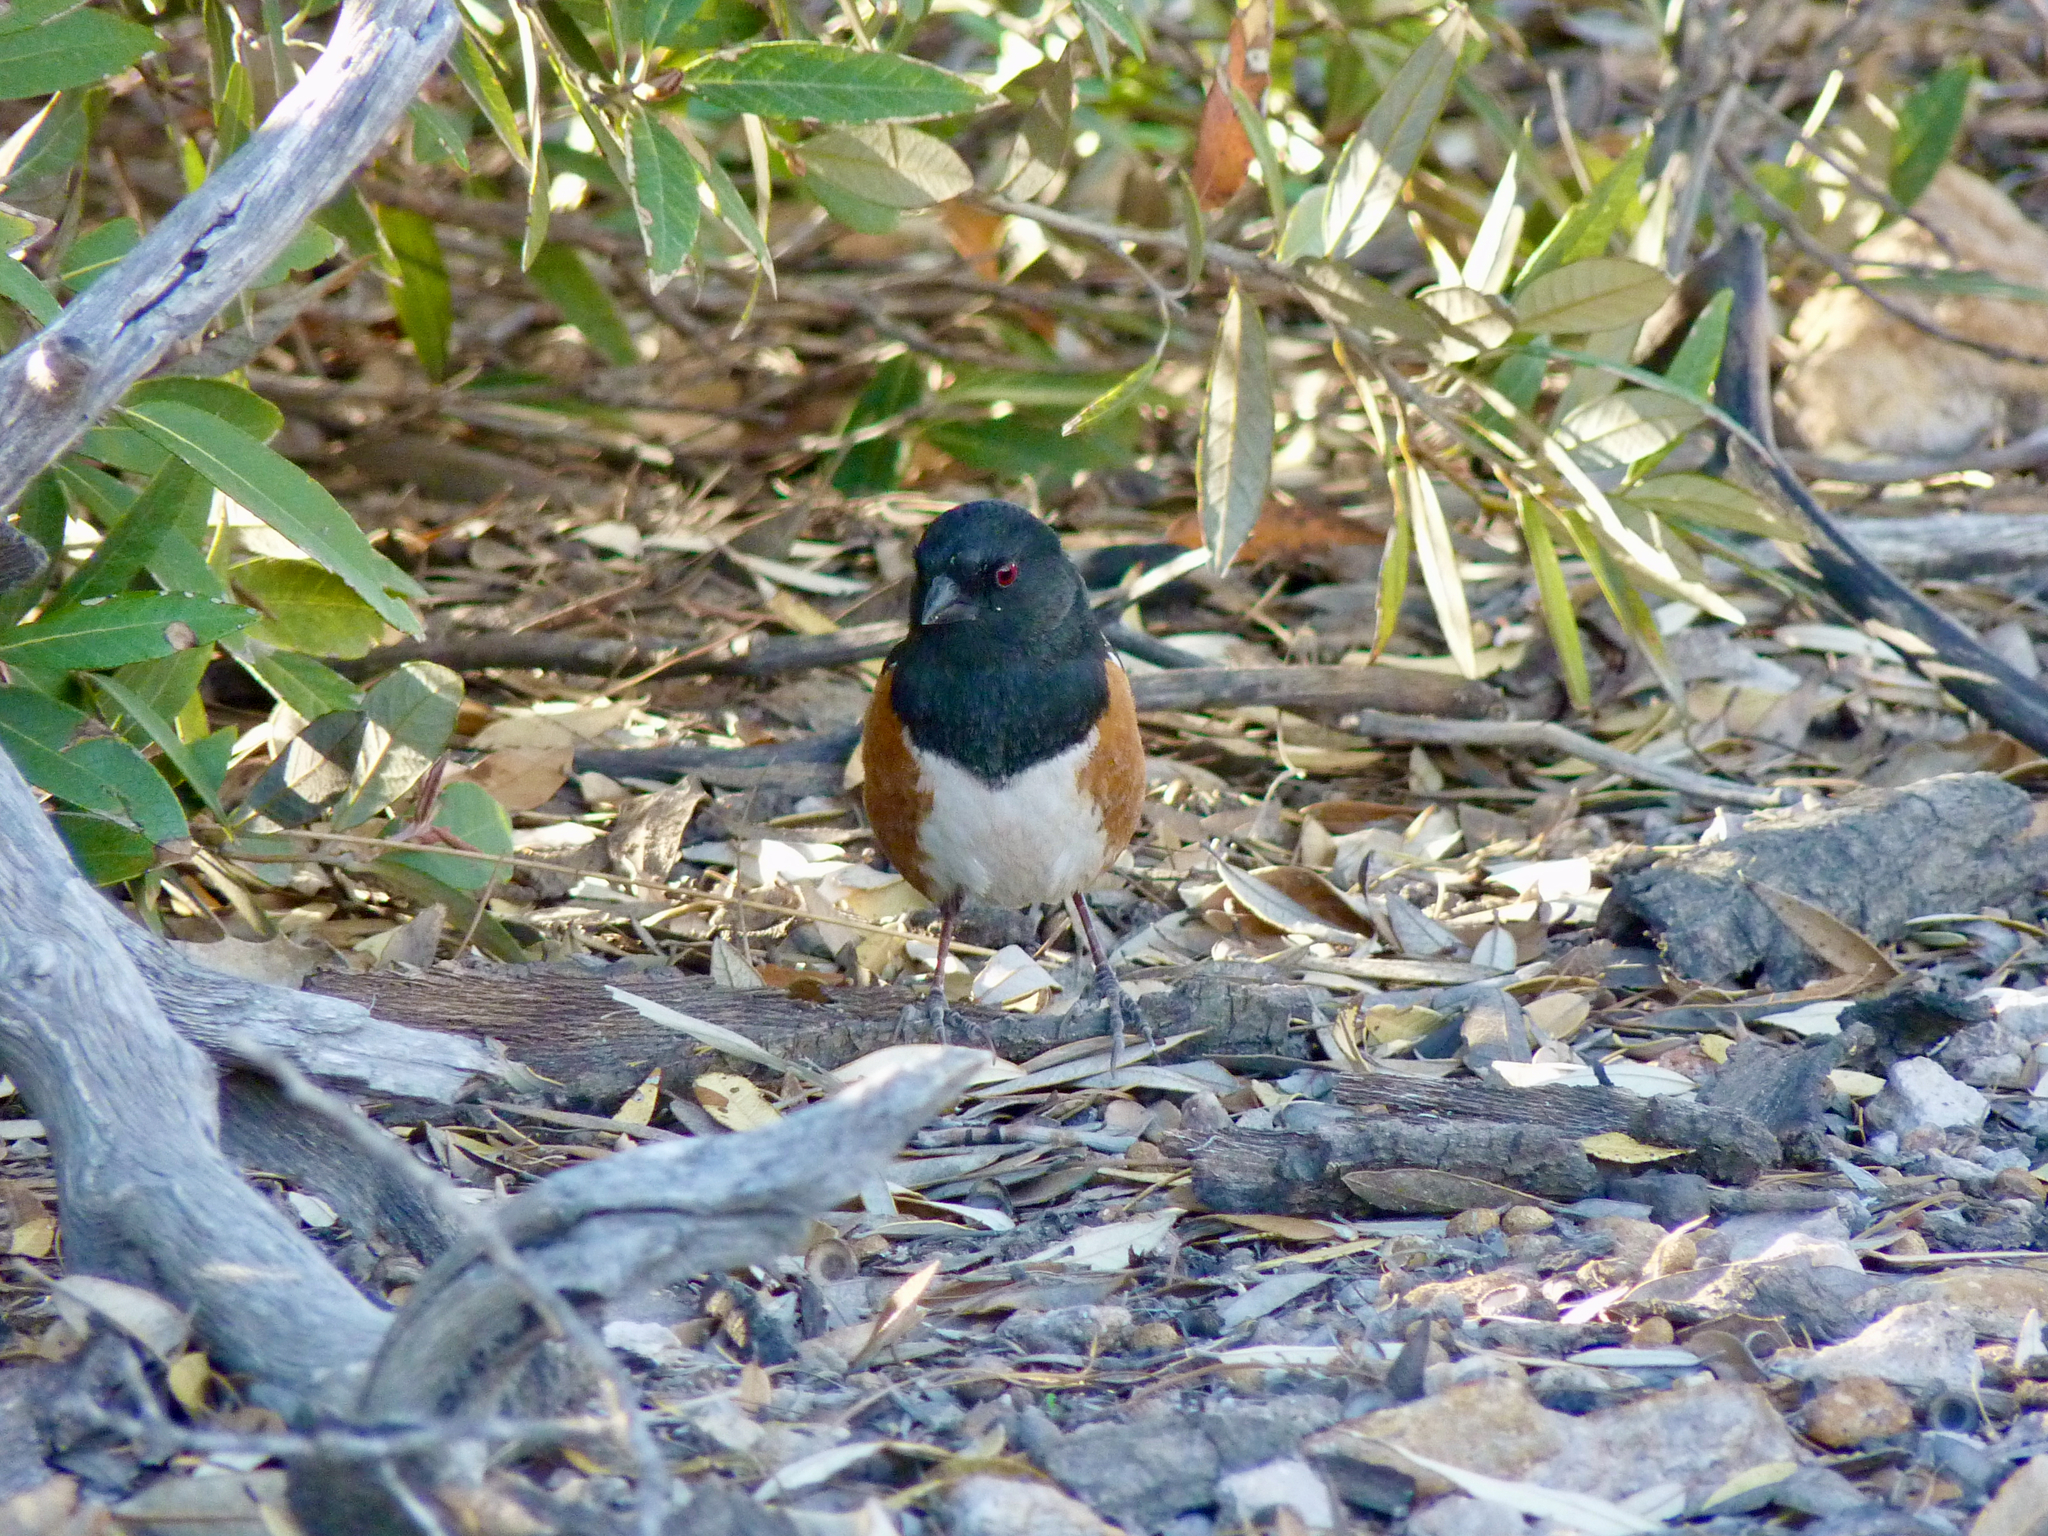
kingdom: Animalia
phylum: Chordata
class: Aves
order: Passeriformes
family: Passerellidae
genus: Pipilo
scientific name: Pipilo maculatus
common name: Spotted towhee
